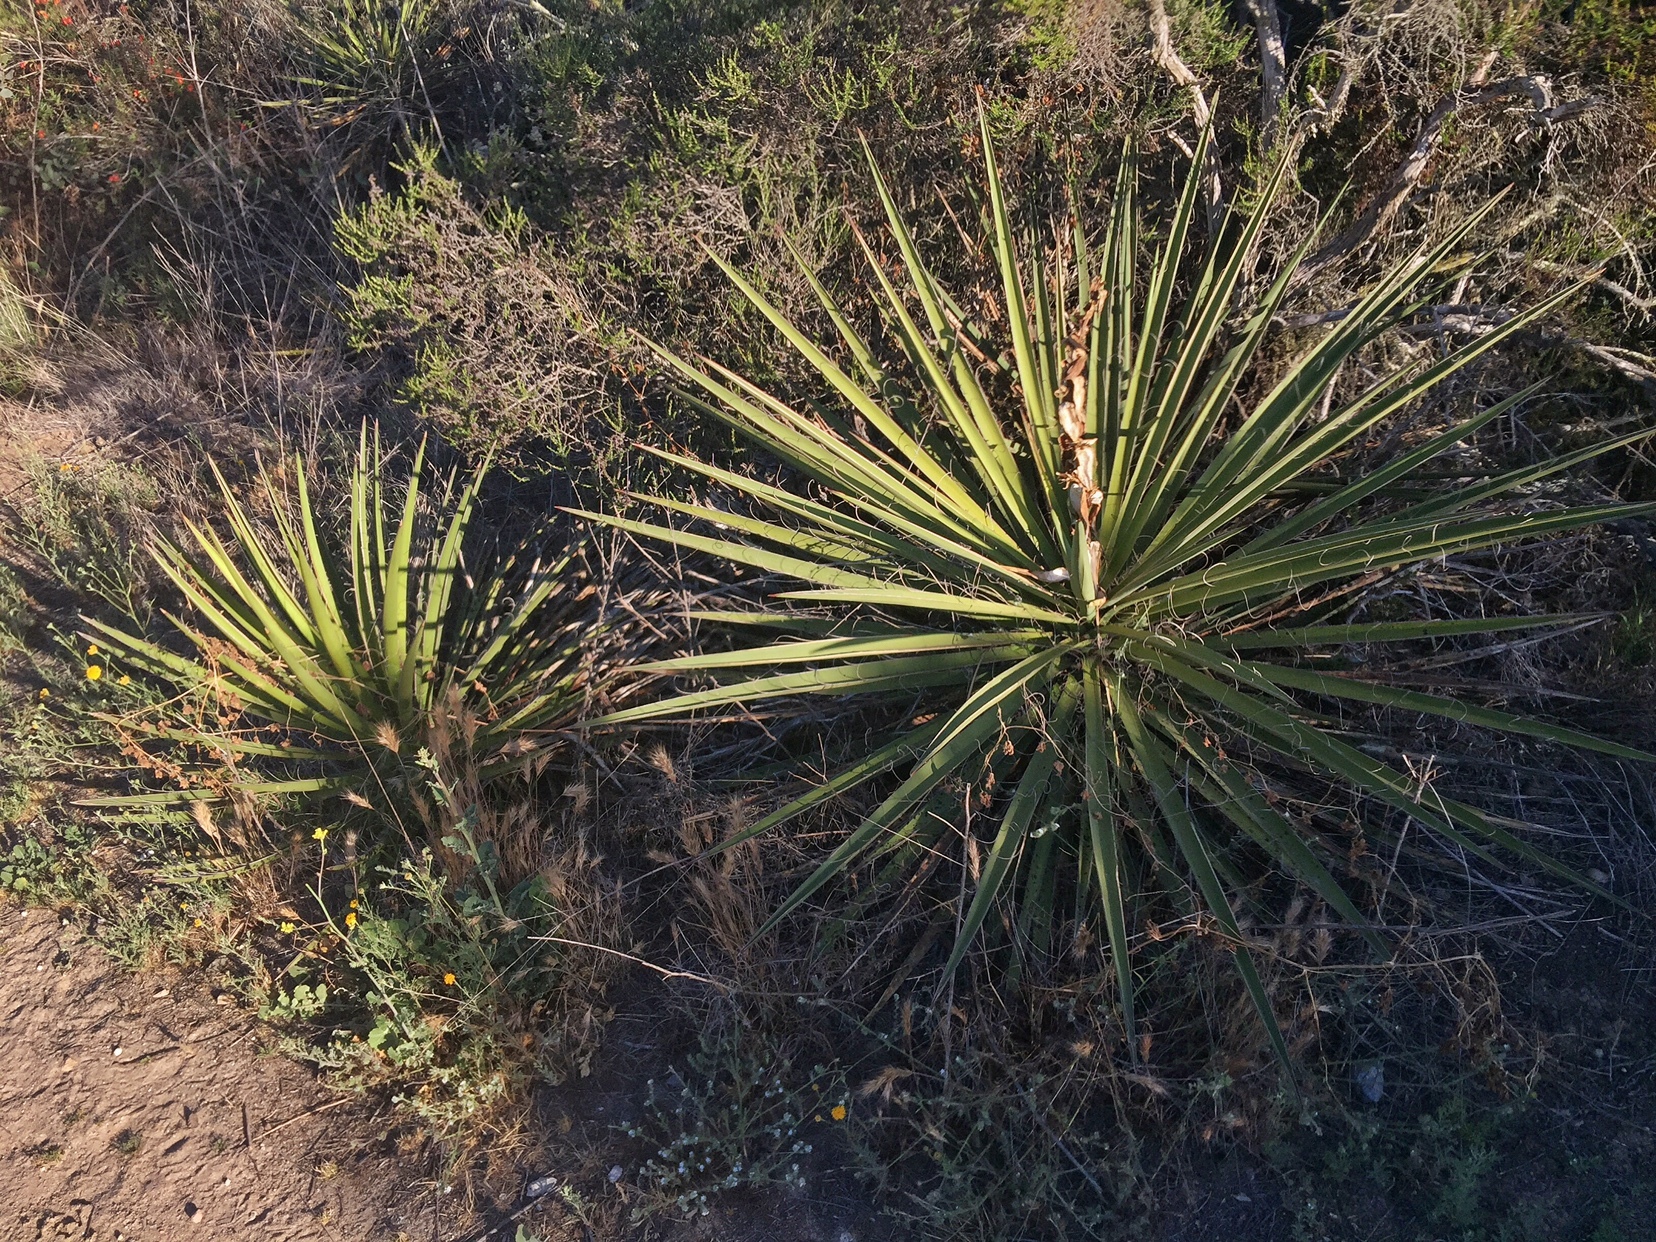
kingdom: Plantae
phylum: Tracheophyta
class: Liliopsida
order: Asparagales
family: Asparagaceae
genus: Yucca
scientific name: Yucca schidigera
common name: Mojave yucca
